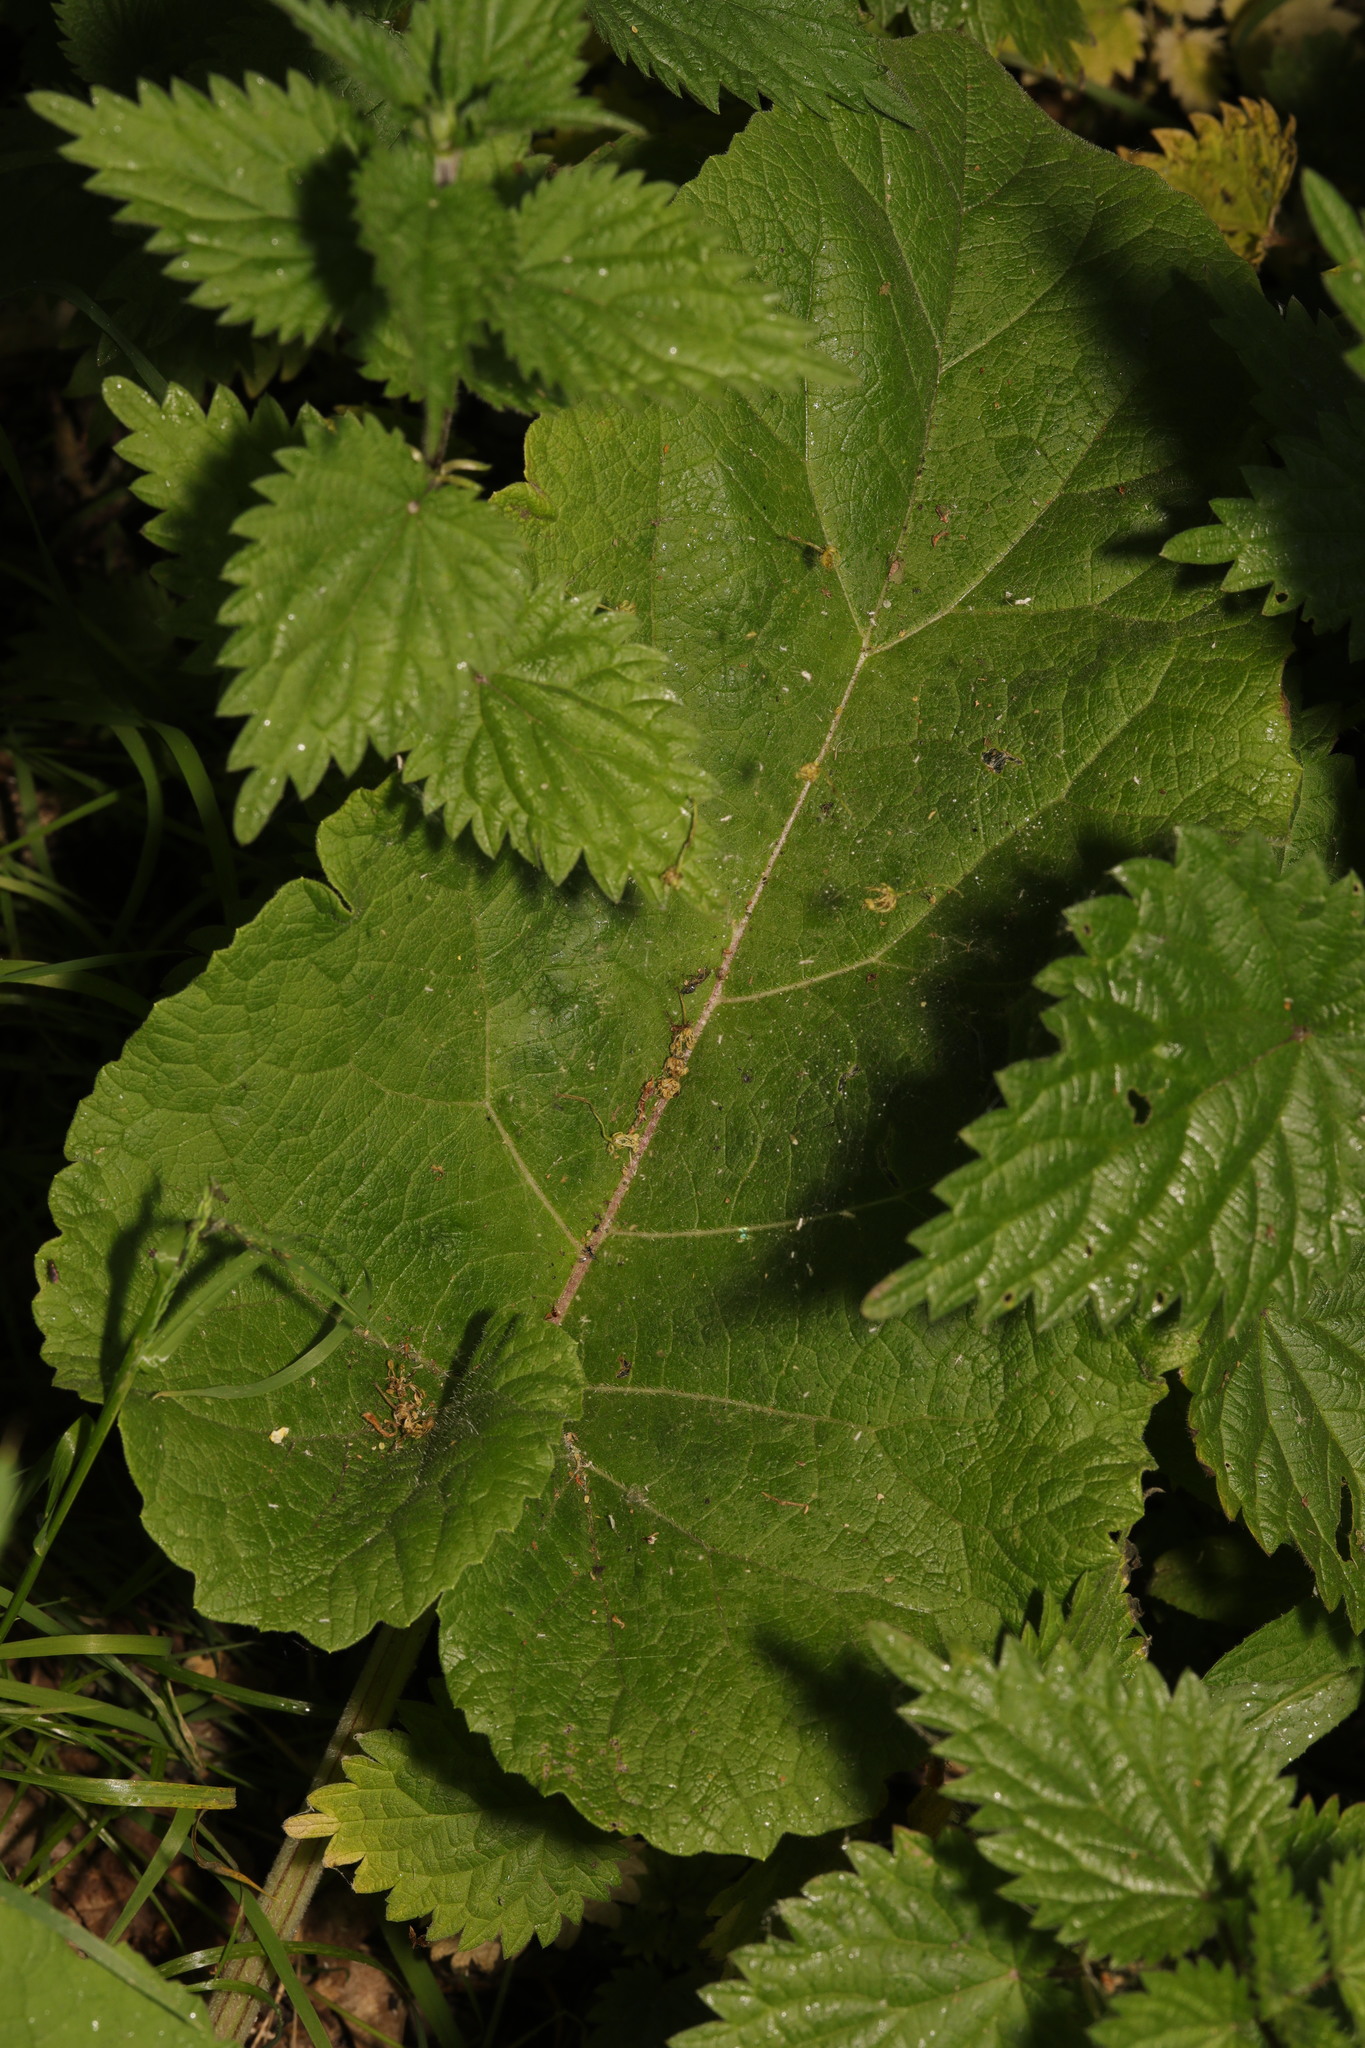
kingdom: Plantae
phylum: Tracheophyta
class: Magnoliopsida
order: Asterales
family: Asteraceae
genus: Arctium
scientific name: Arctium minus
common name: Lesser burdock
